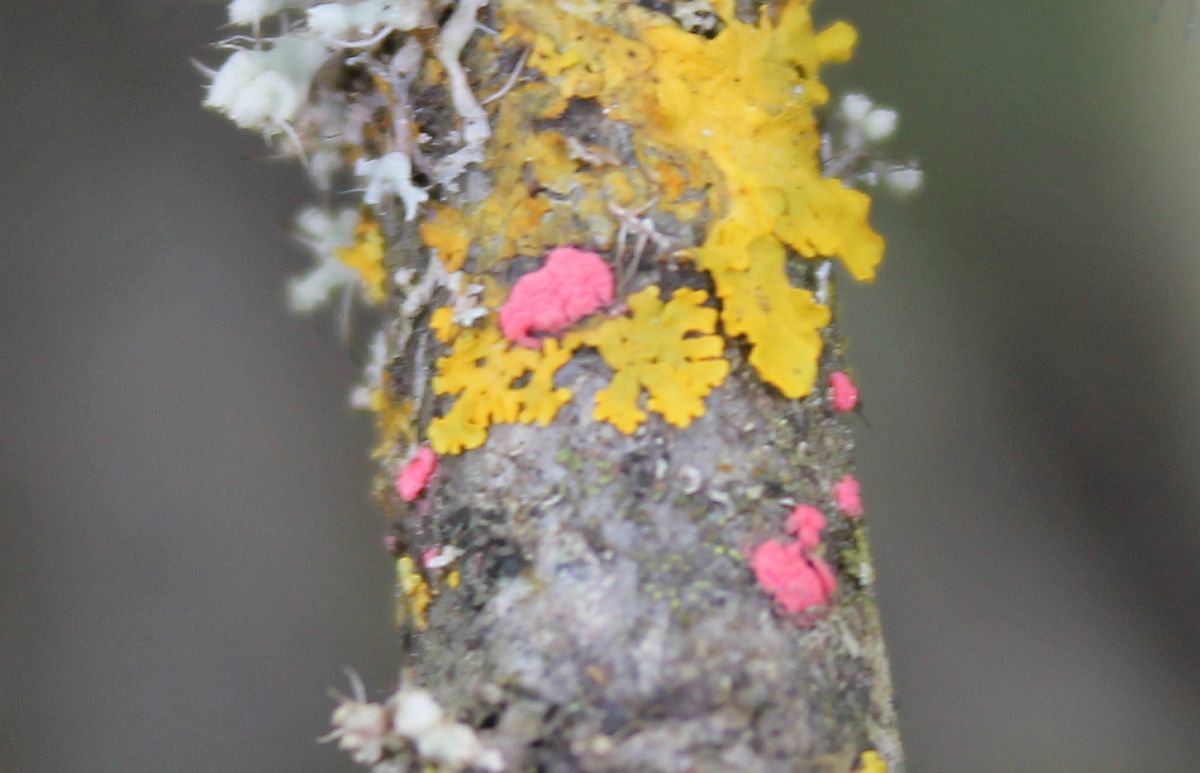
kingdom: Fungi
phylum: Ascomycota
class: Sordariomycetes
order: Hypocreales
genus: Illosporiopsis
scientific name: Illosporiopsis christiansenii
